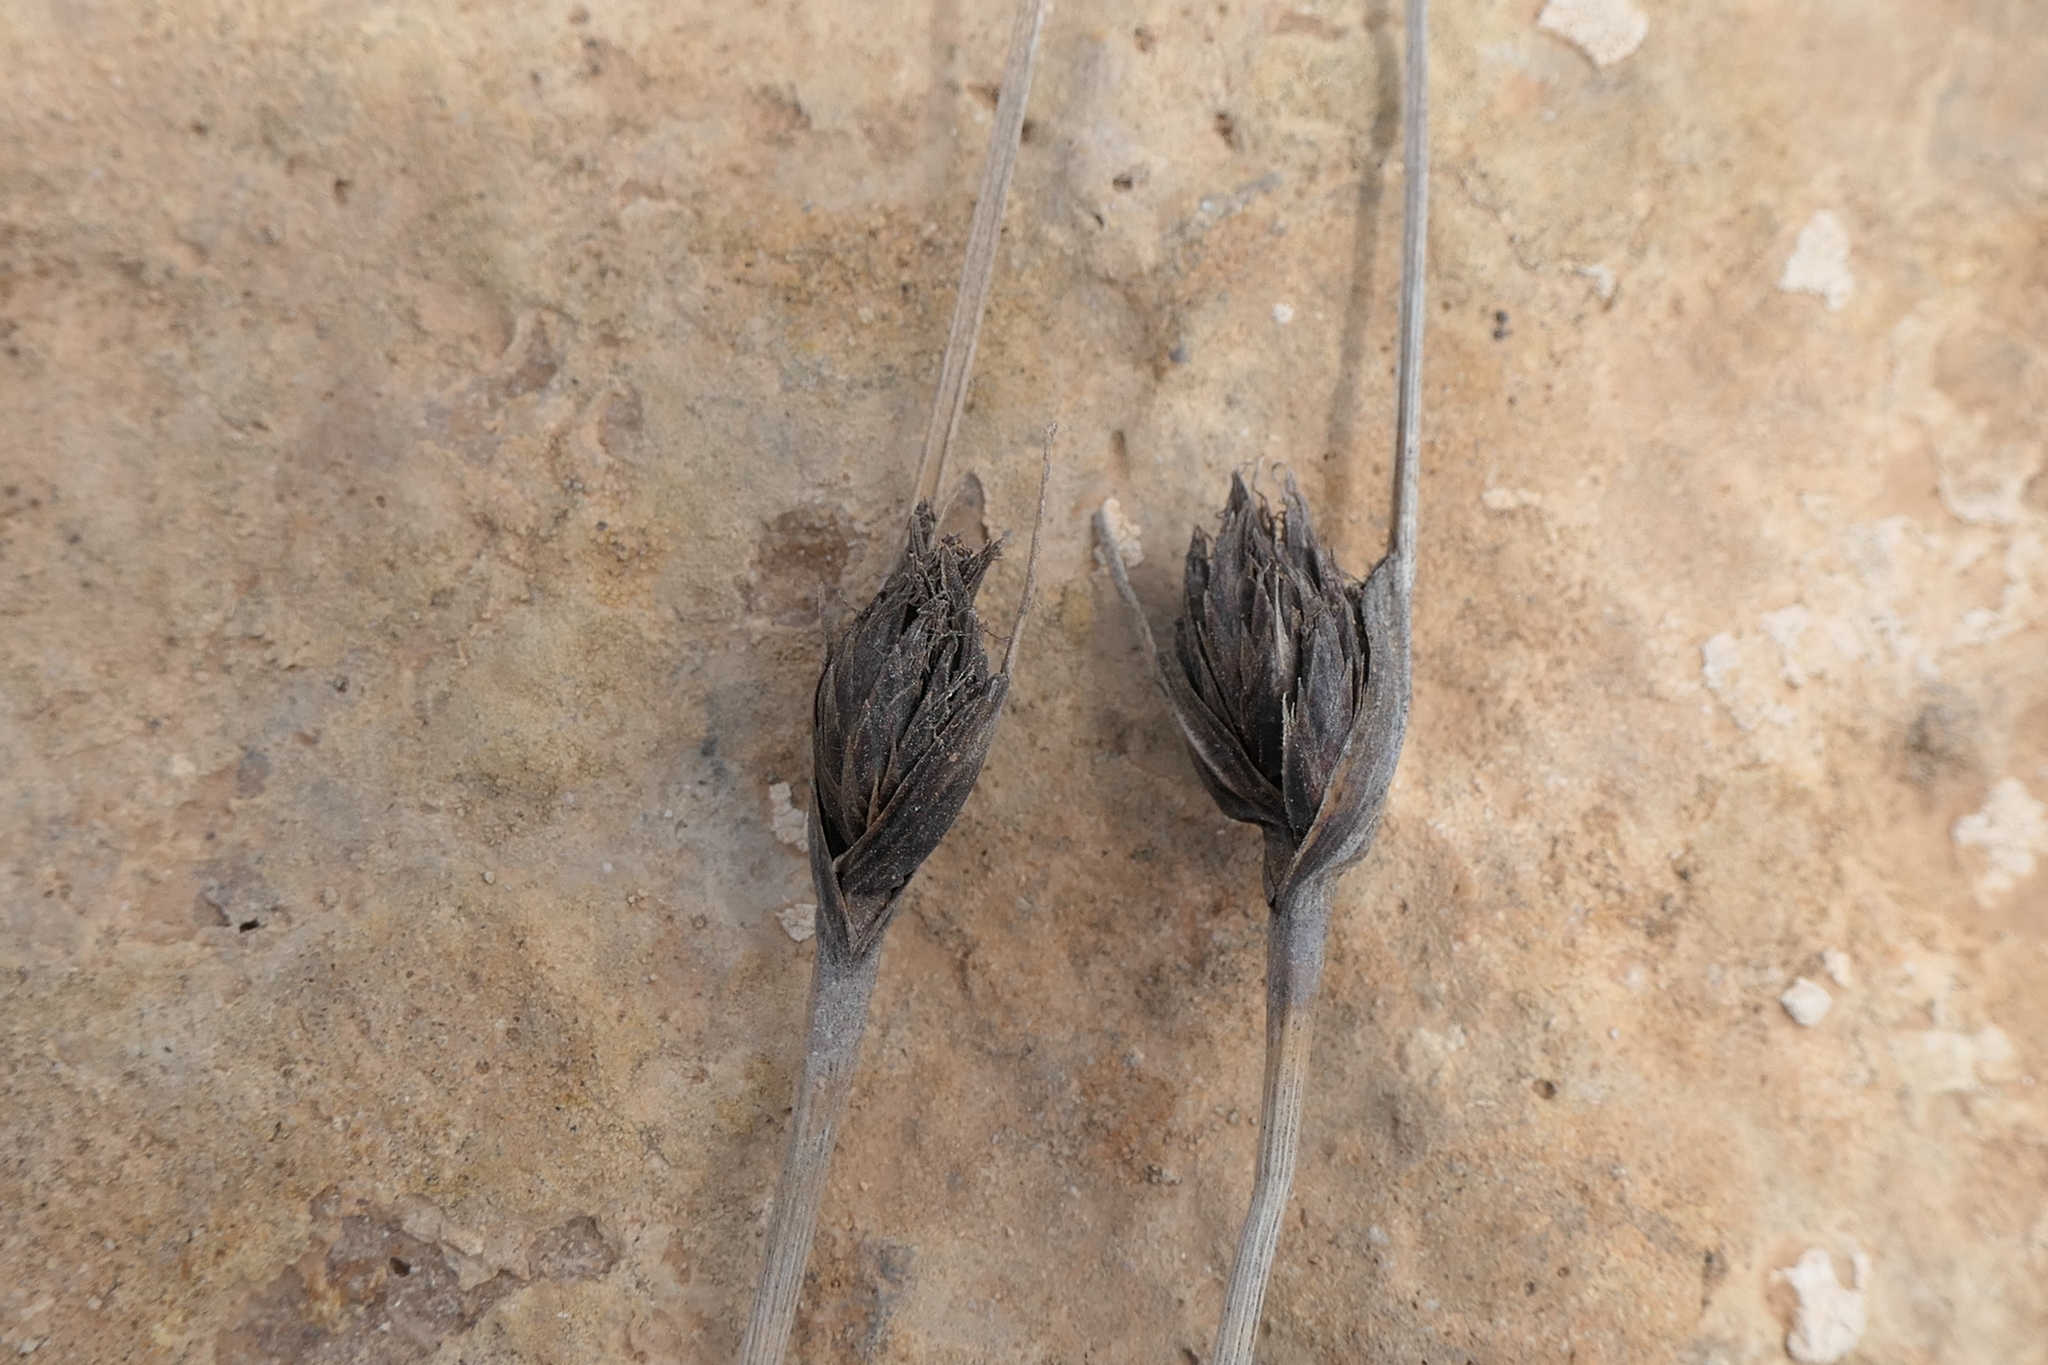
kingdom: Plantae
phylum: Tracheophyta
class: Liliopsida
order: Poales
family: Cyperaceae
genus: Schoenus
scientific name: Schoenus nigricans
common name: Black bog-rush
